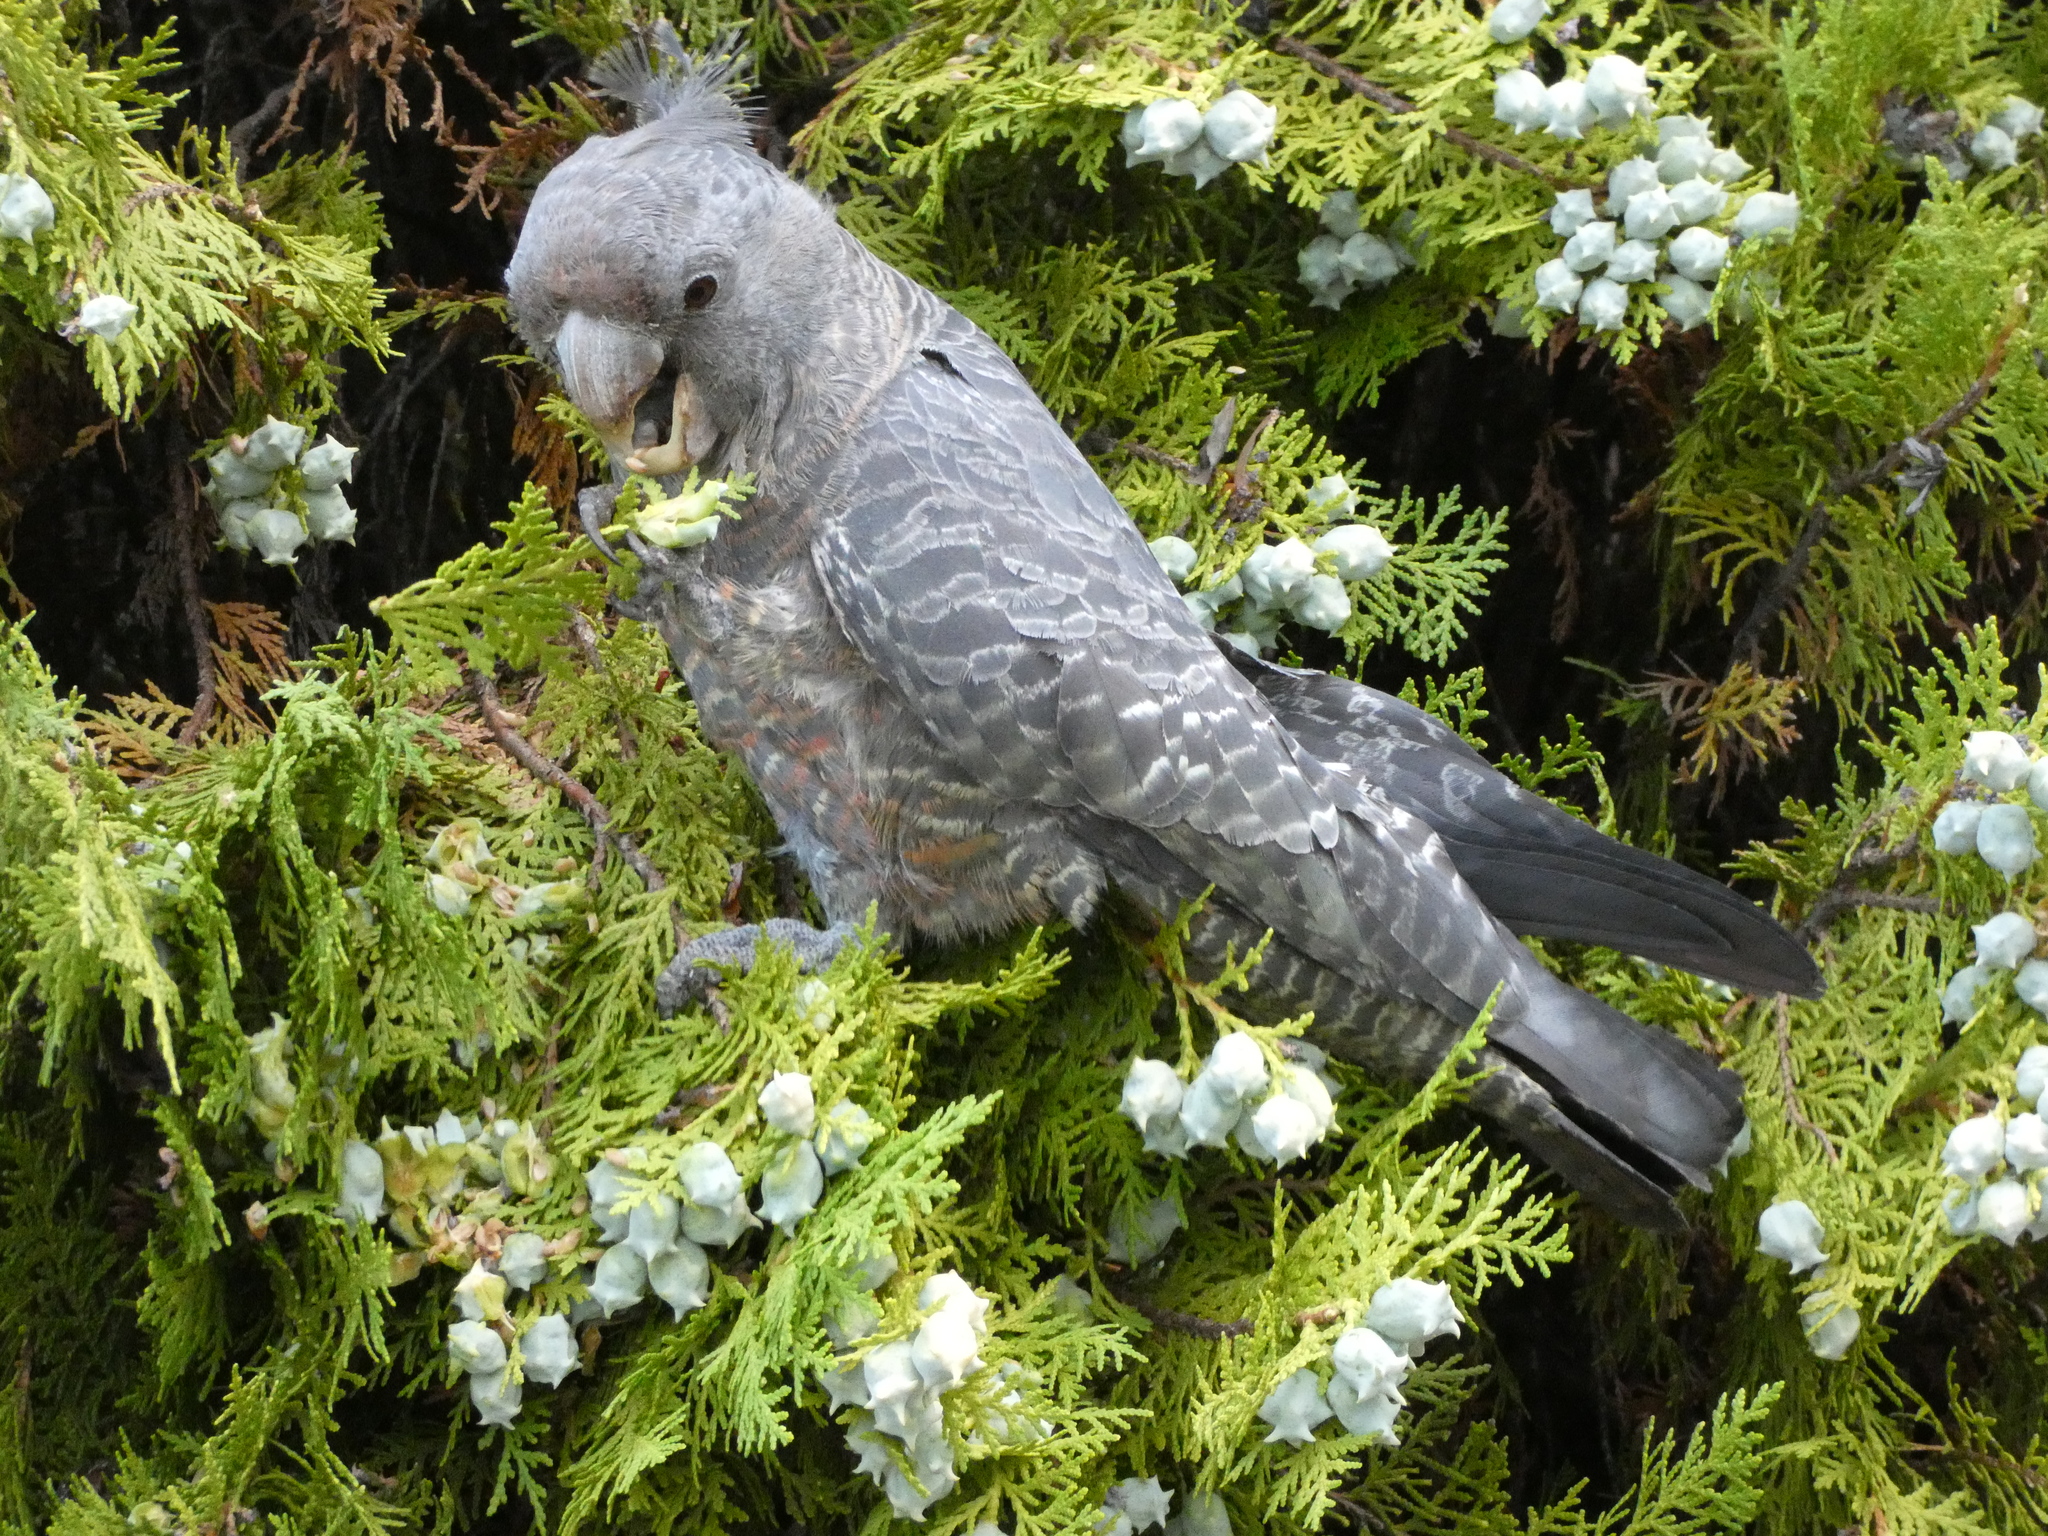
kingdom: Animalia
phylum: Chordata
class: Aves
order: Psittaciformes
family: Psittacidae
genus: Callocephalon
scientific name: Callocephalon fimbriatum
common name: Gang-gang cockatoo
